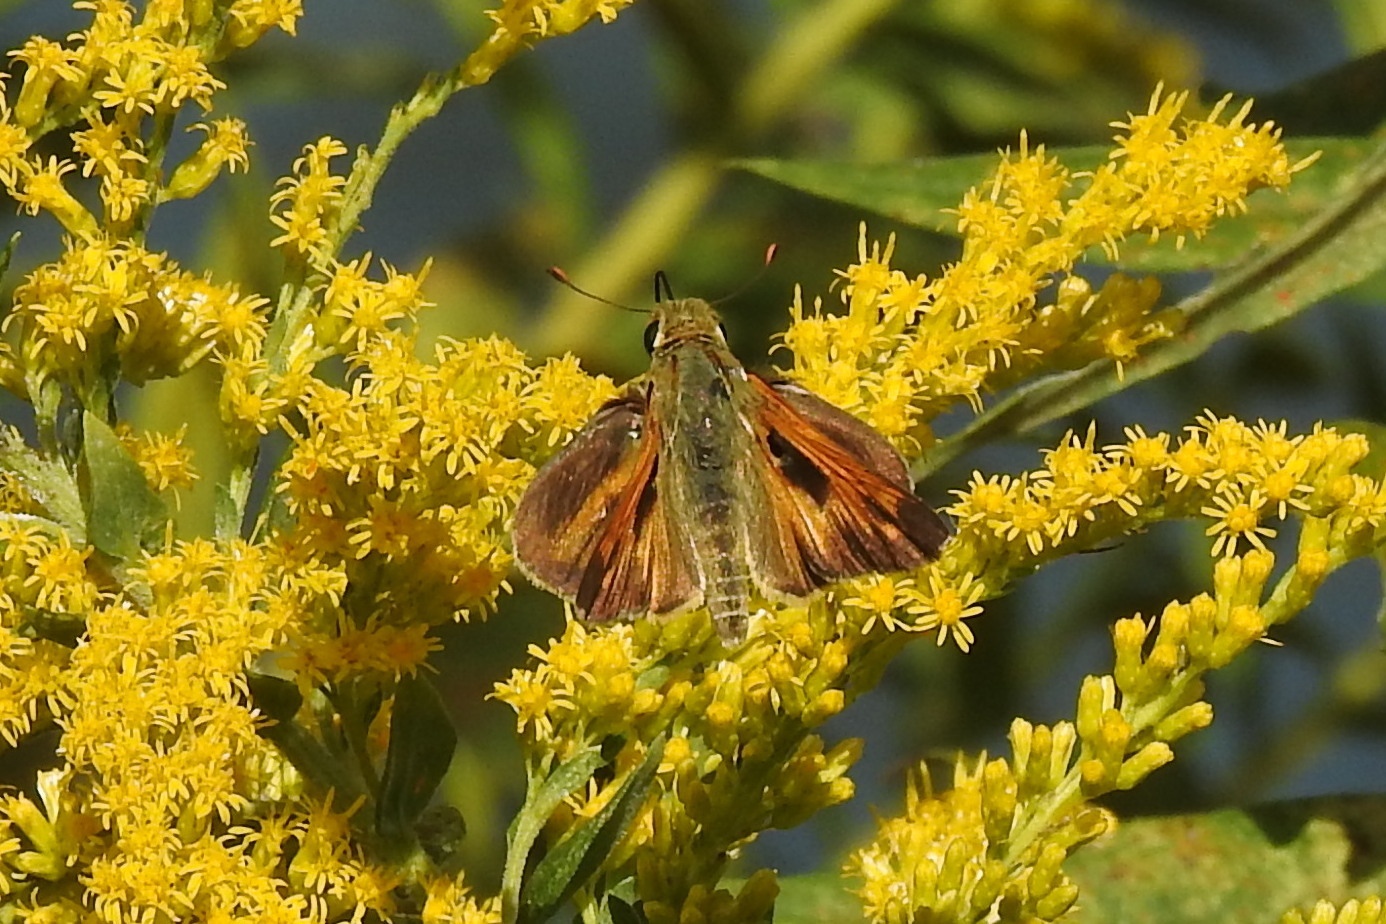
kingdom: Animalia
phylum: Arthropoda
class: Insecta
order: Lepidoptera
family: Hesperiidae
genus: Atalopedes
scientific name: Atalopedes
